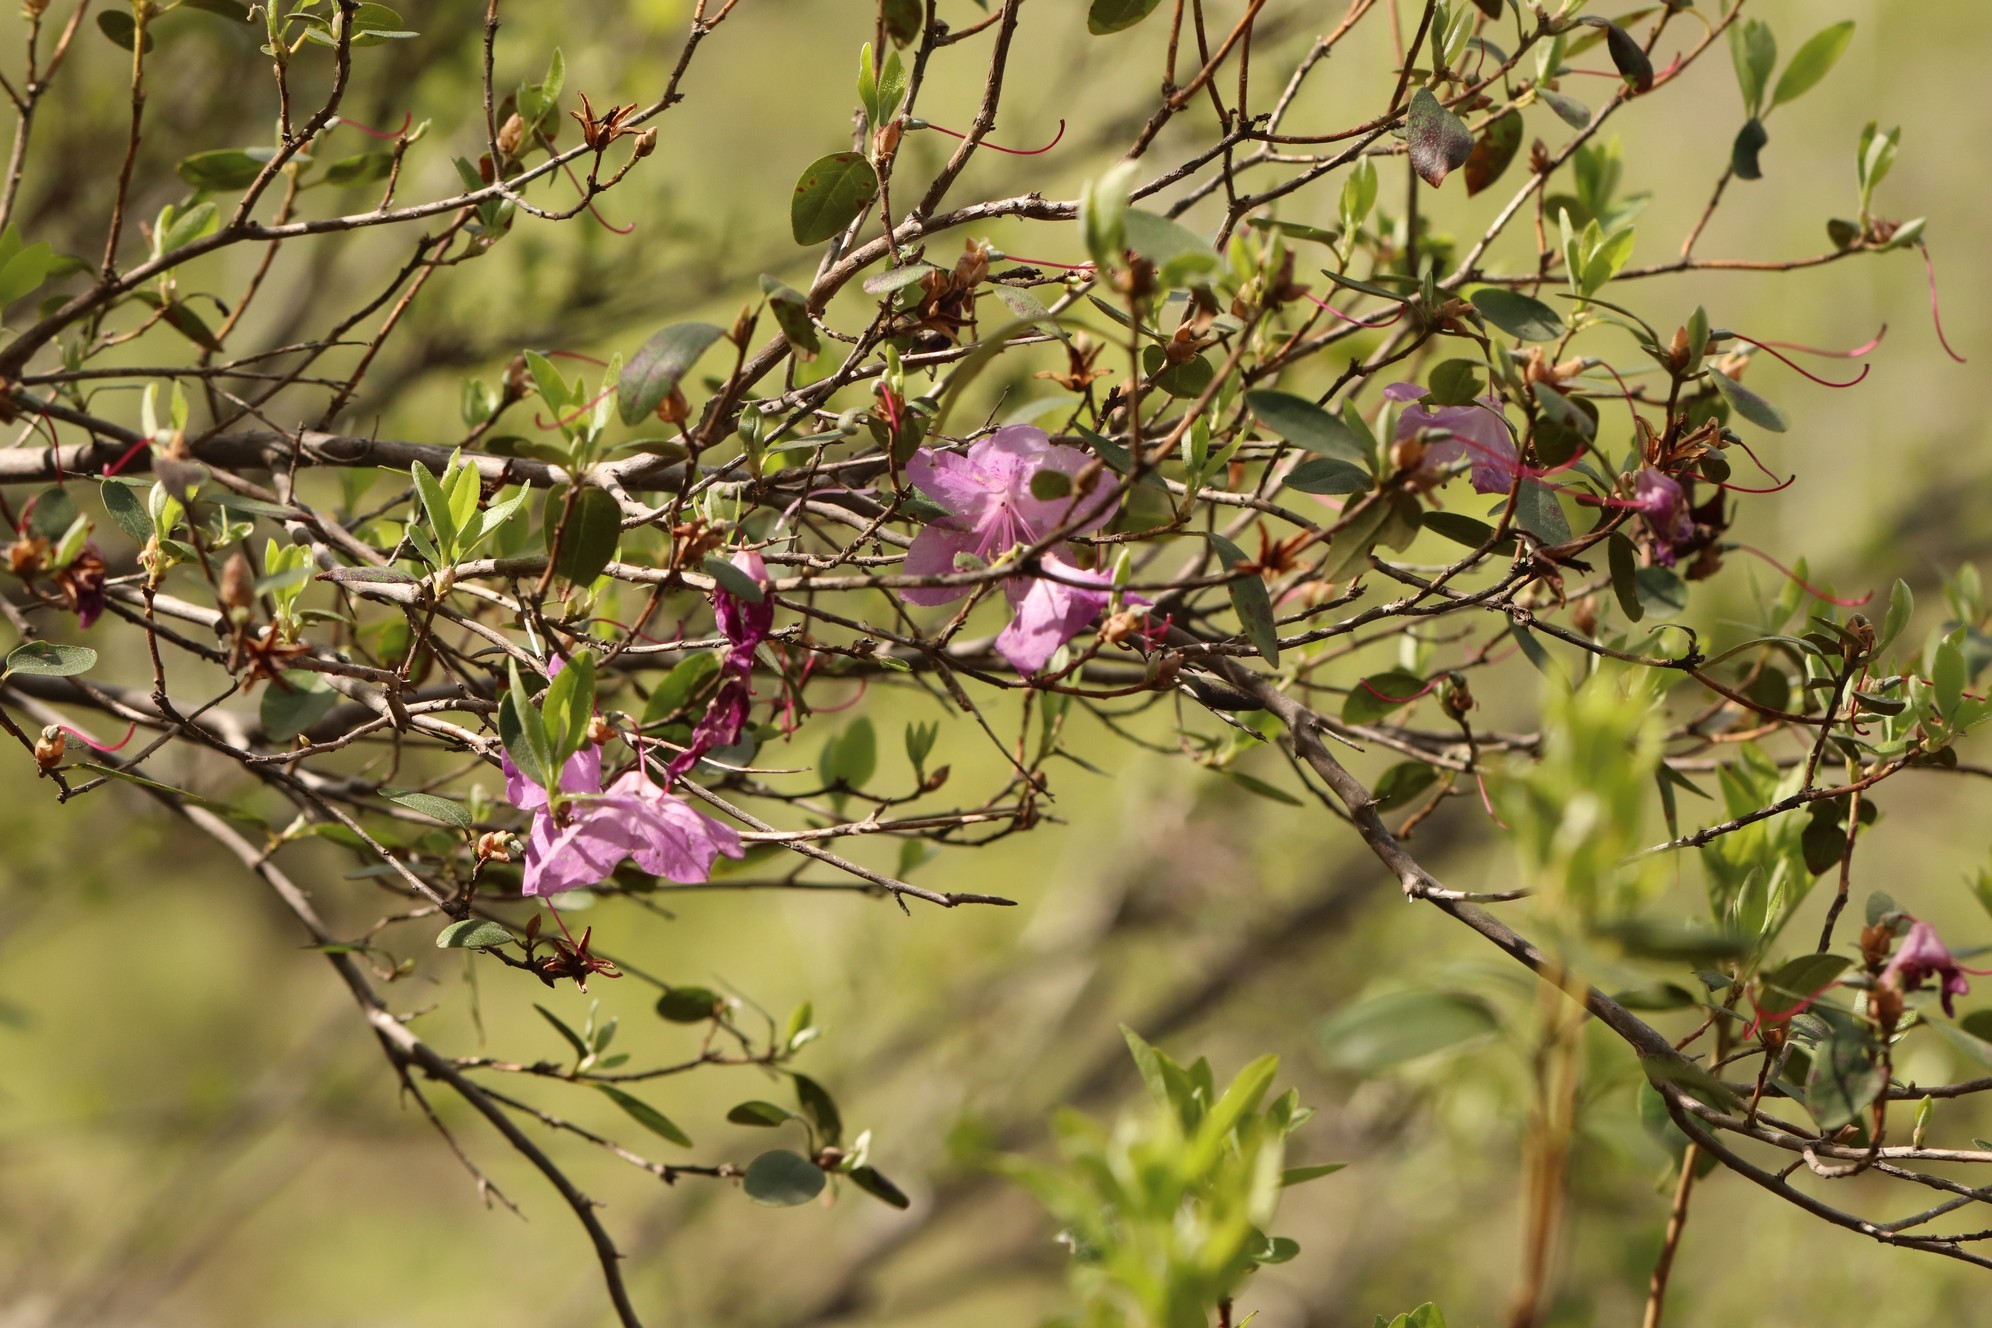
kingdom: Plantae
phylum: Tracheophyta
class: Magnoliopsida
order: Ericales
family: Ericaceae
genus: Rhododendron
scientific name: Rhododendron dauricum
